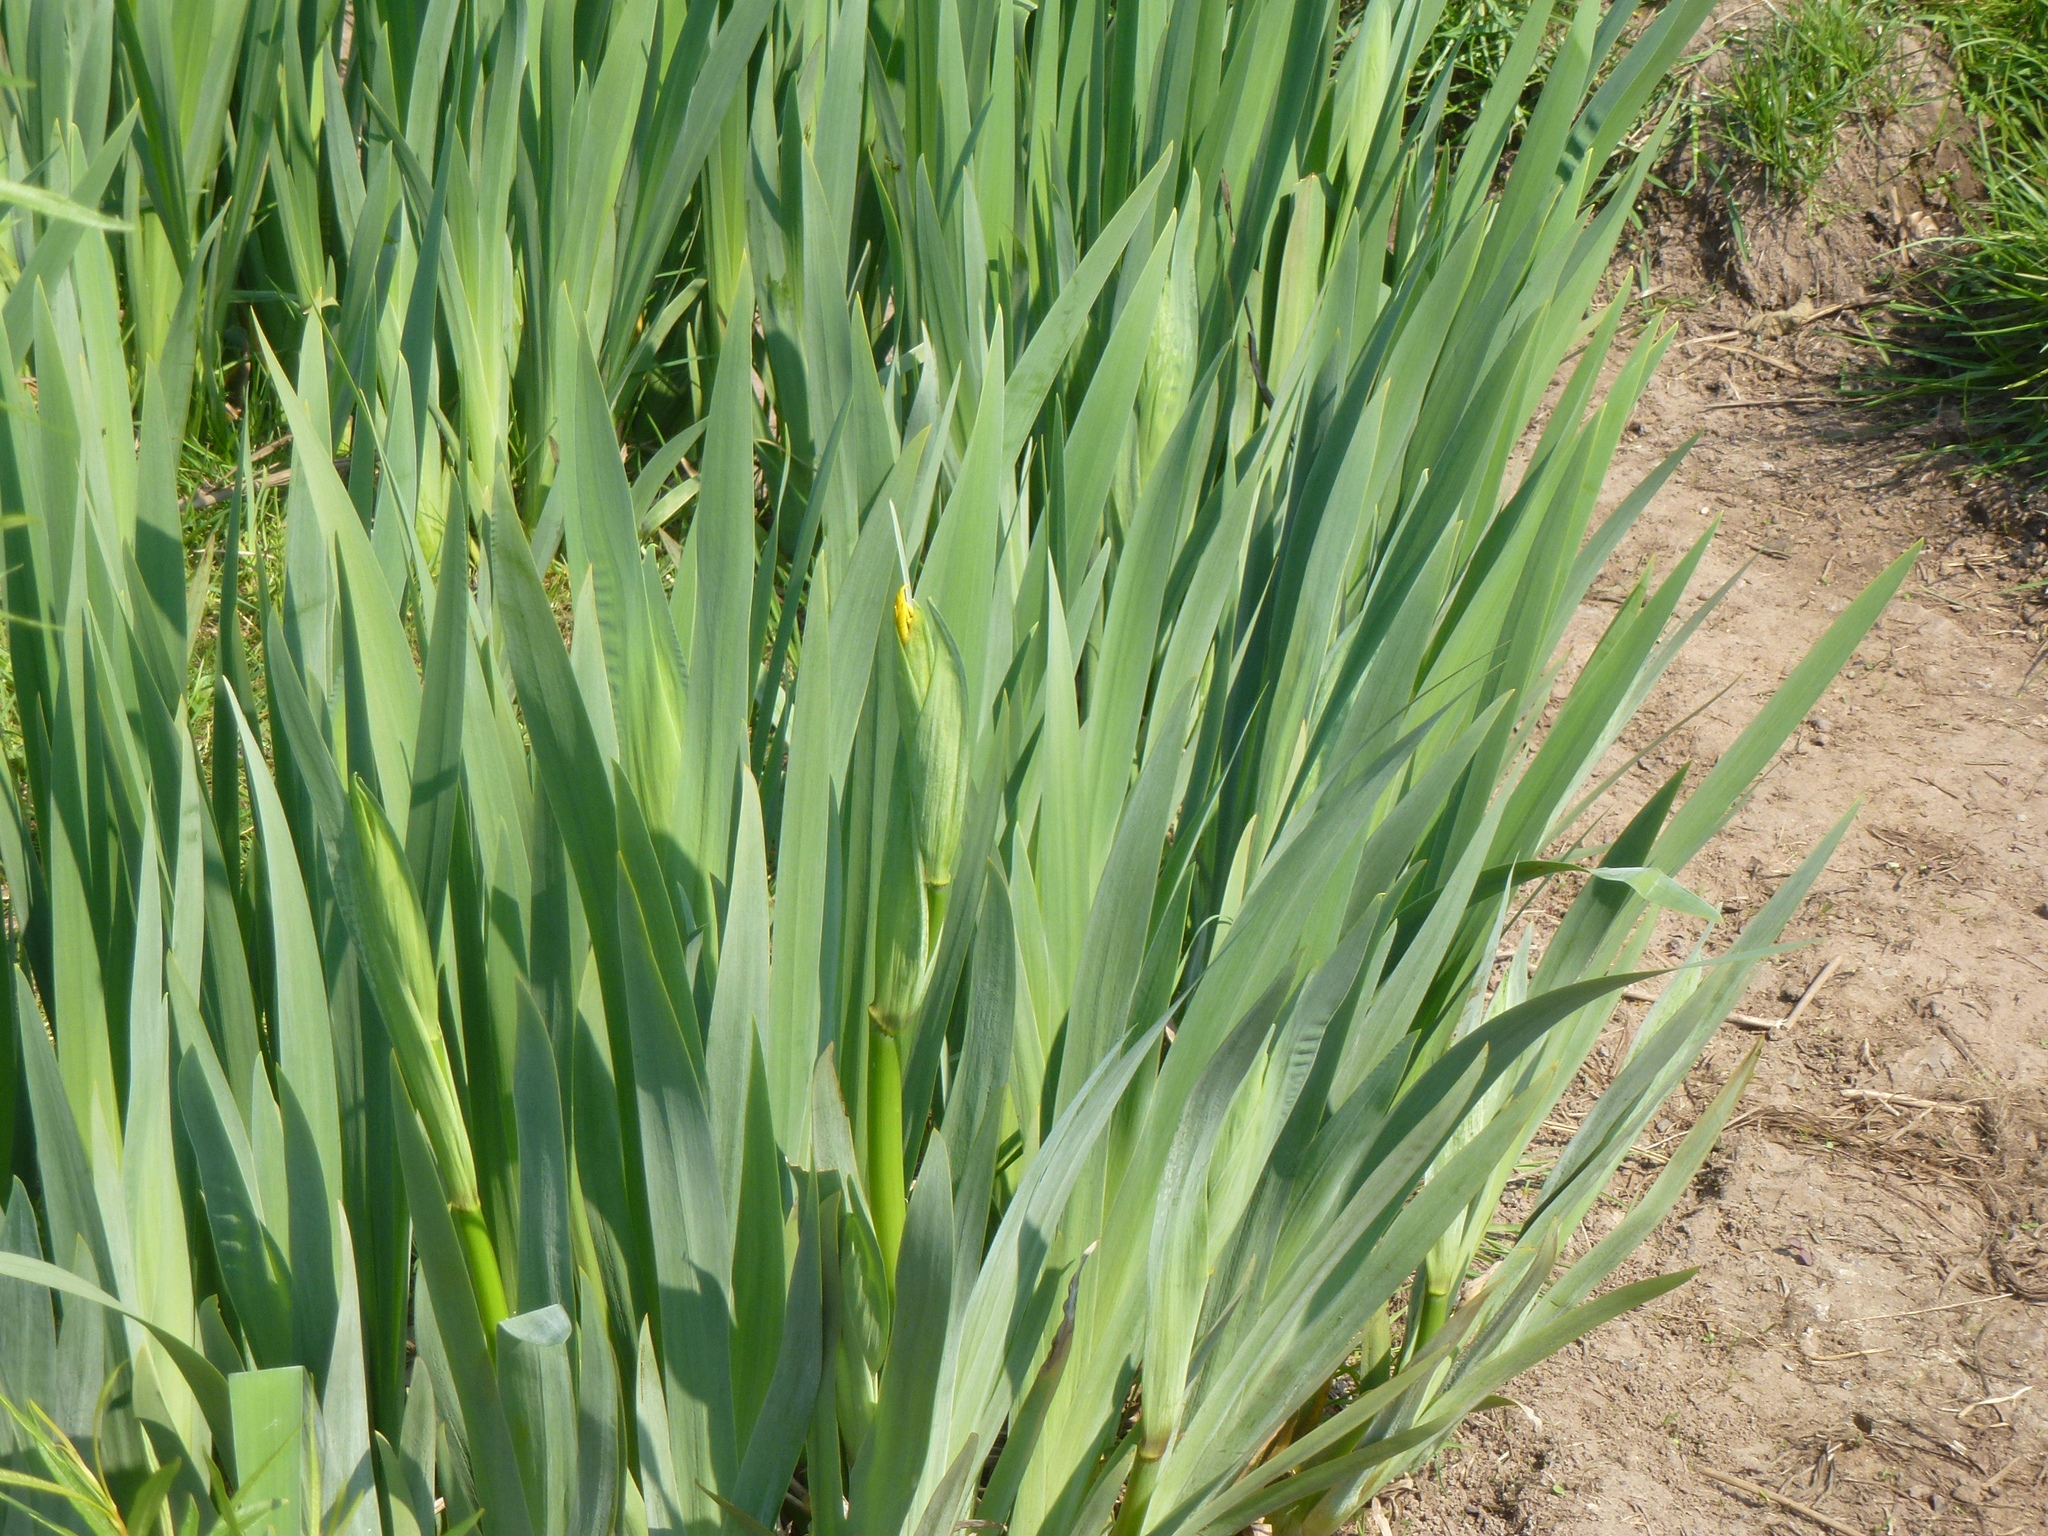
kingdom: Plantae
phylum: Tracheophyta
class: Liliopsida
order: Asparagales
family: Iridaceae
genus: Iris
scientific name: Iris pseudacorus
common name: Yellow flag
